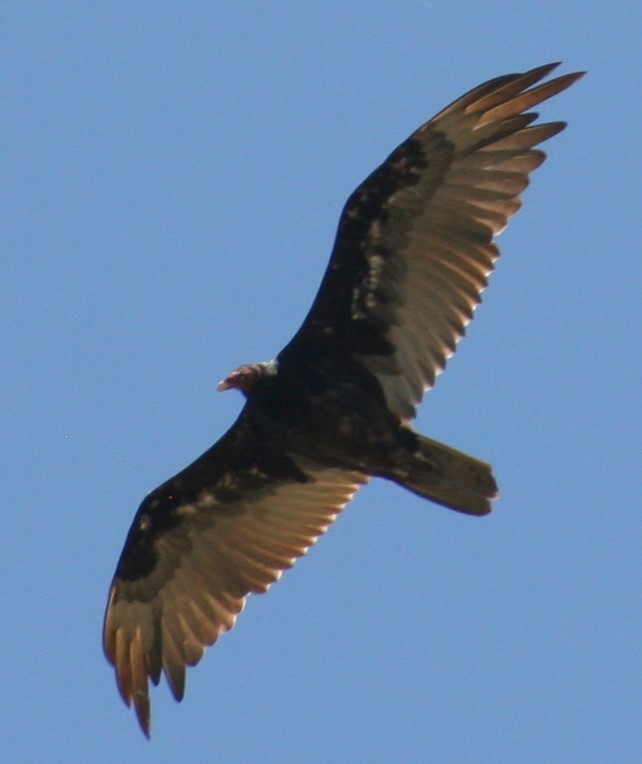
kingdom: Animalia
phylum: Chordata
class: Aves
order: Accipitriformes
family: Cathartidae
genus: Cathartes
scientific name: Cathartes aura
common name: Turkey vulture
